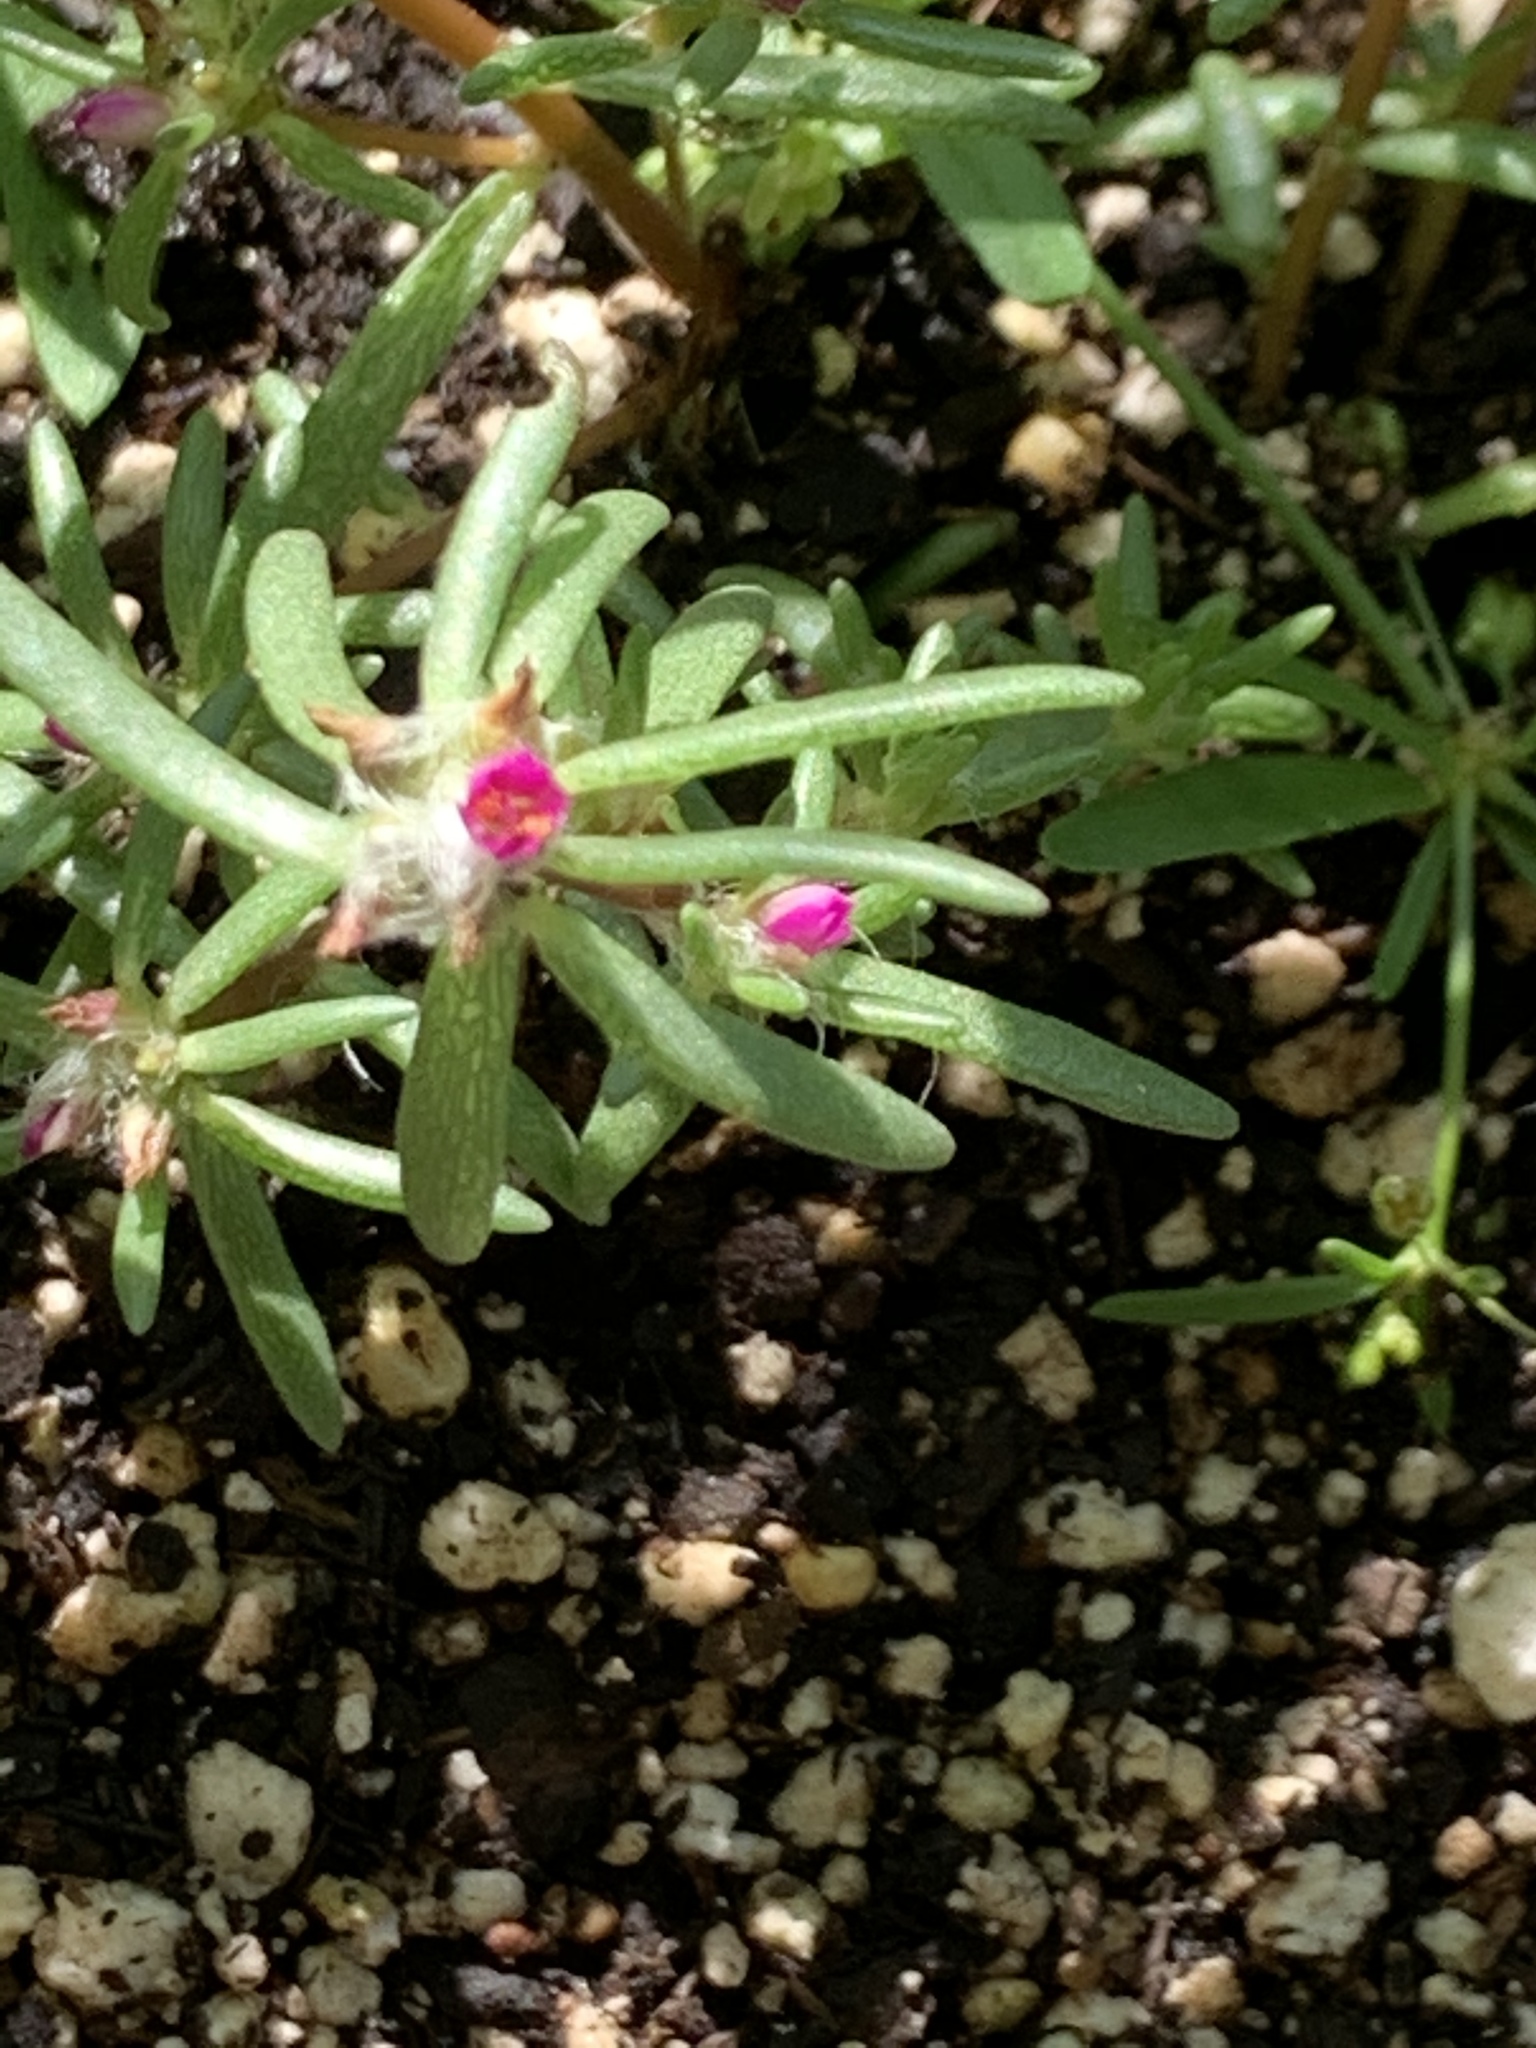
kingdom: Plantae
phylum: Tracheophyta
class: Magnoliopsida
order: Caryophyllales
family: Portulacaceae
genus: Portulaca
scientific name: Portulaca pilosa
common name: Kiss me quick
